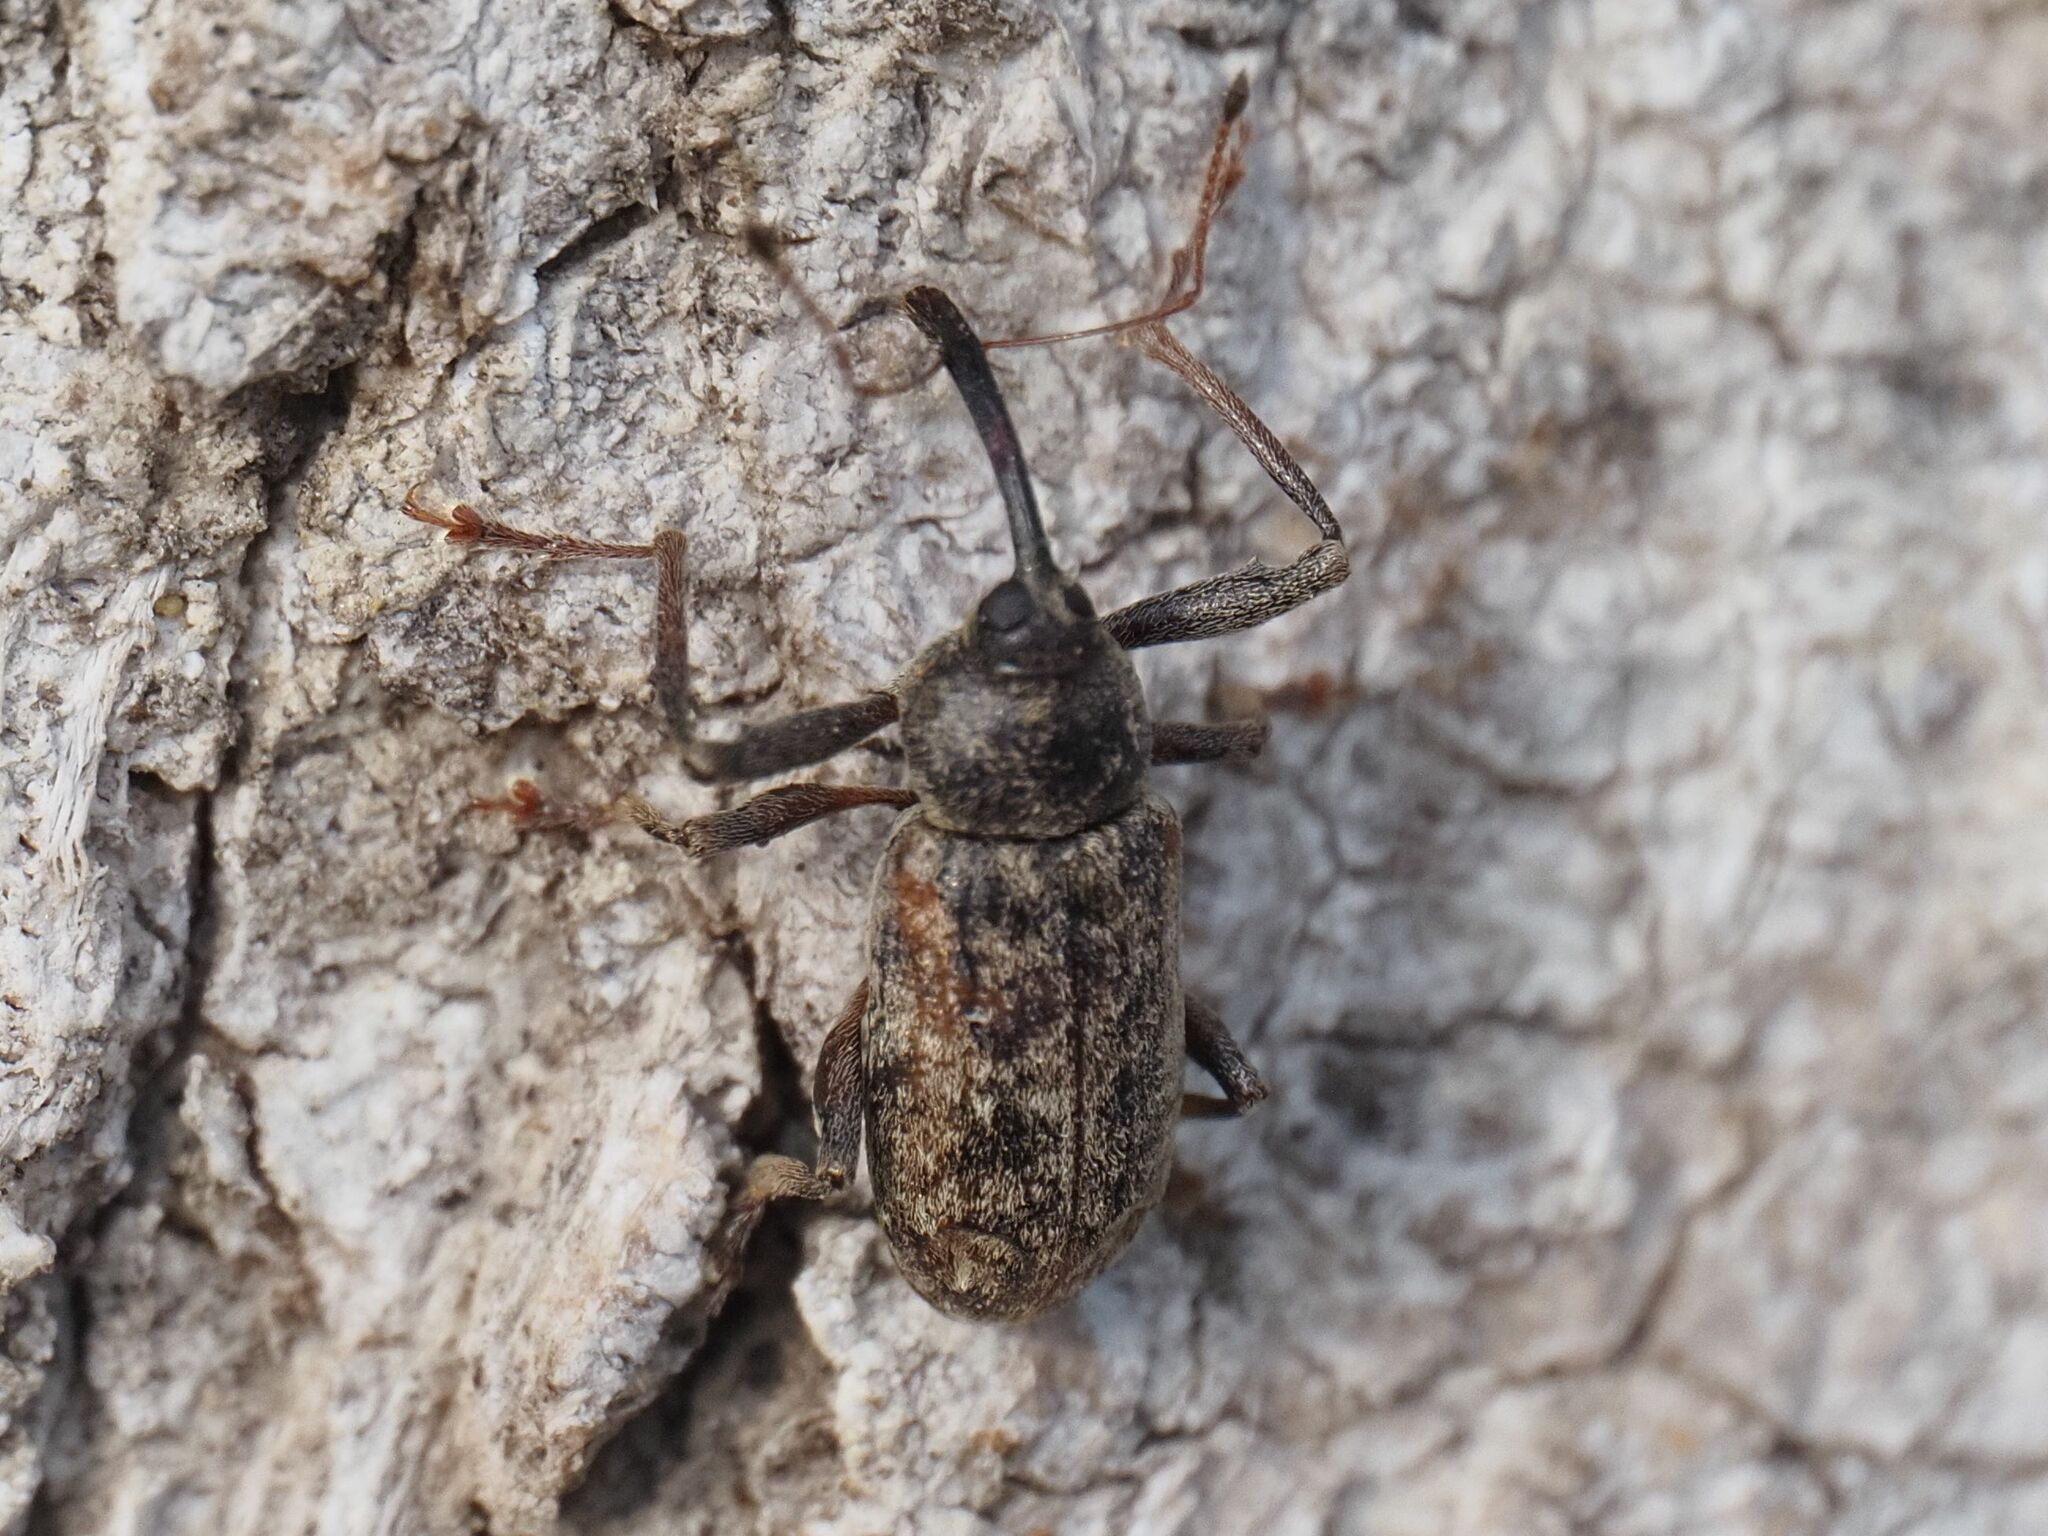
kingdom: Animalia
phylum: Arthropoda
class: Insecta
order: Coleoptera
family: Curculionidae
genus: Dorytomus
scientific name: Dorytomus longimanus
